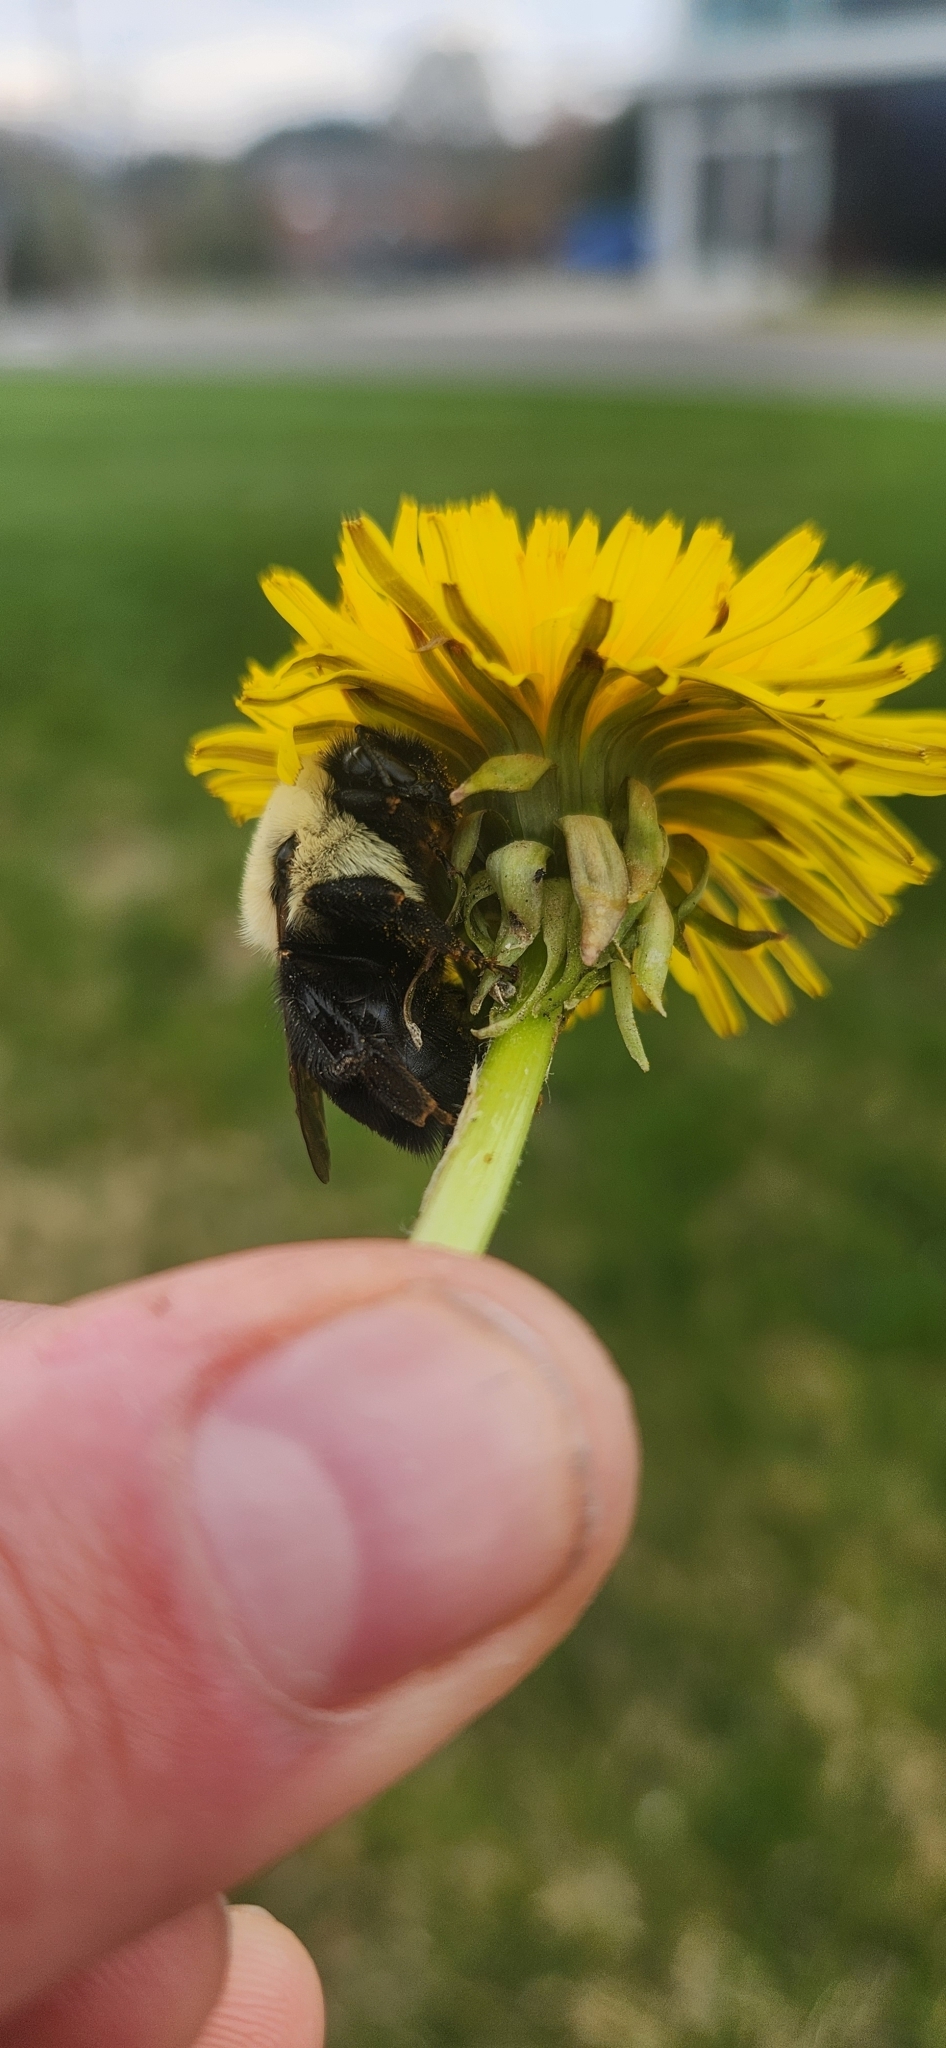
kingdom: Animalia
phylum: Arthropoda
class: Insecta
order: Hymenoptera
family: Apidae
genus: Bombus
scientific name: Bombus impatiens
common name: Common eastern bumble bee
